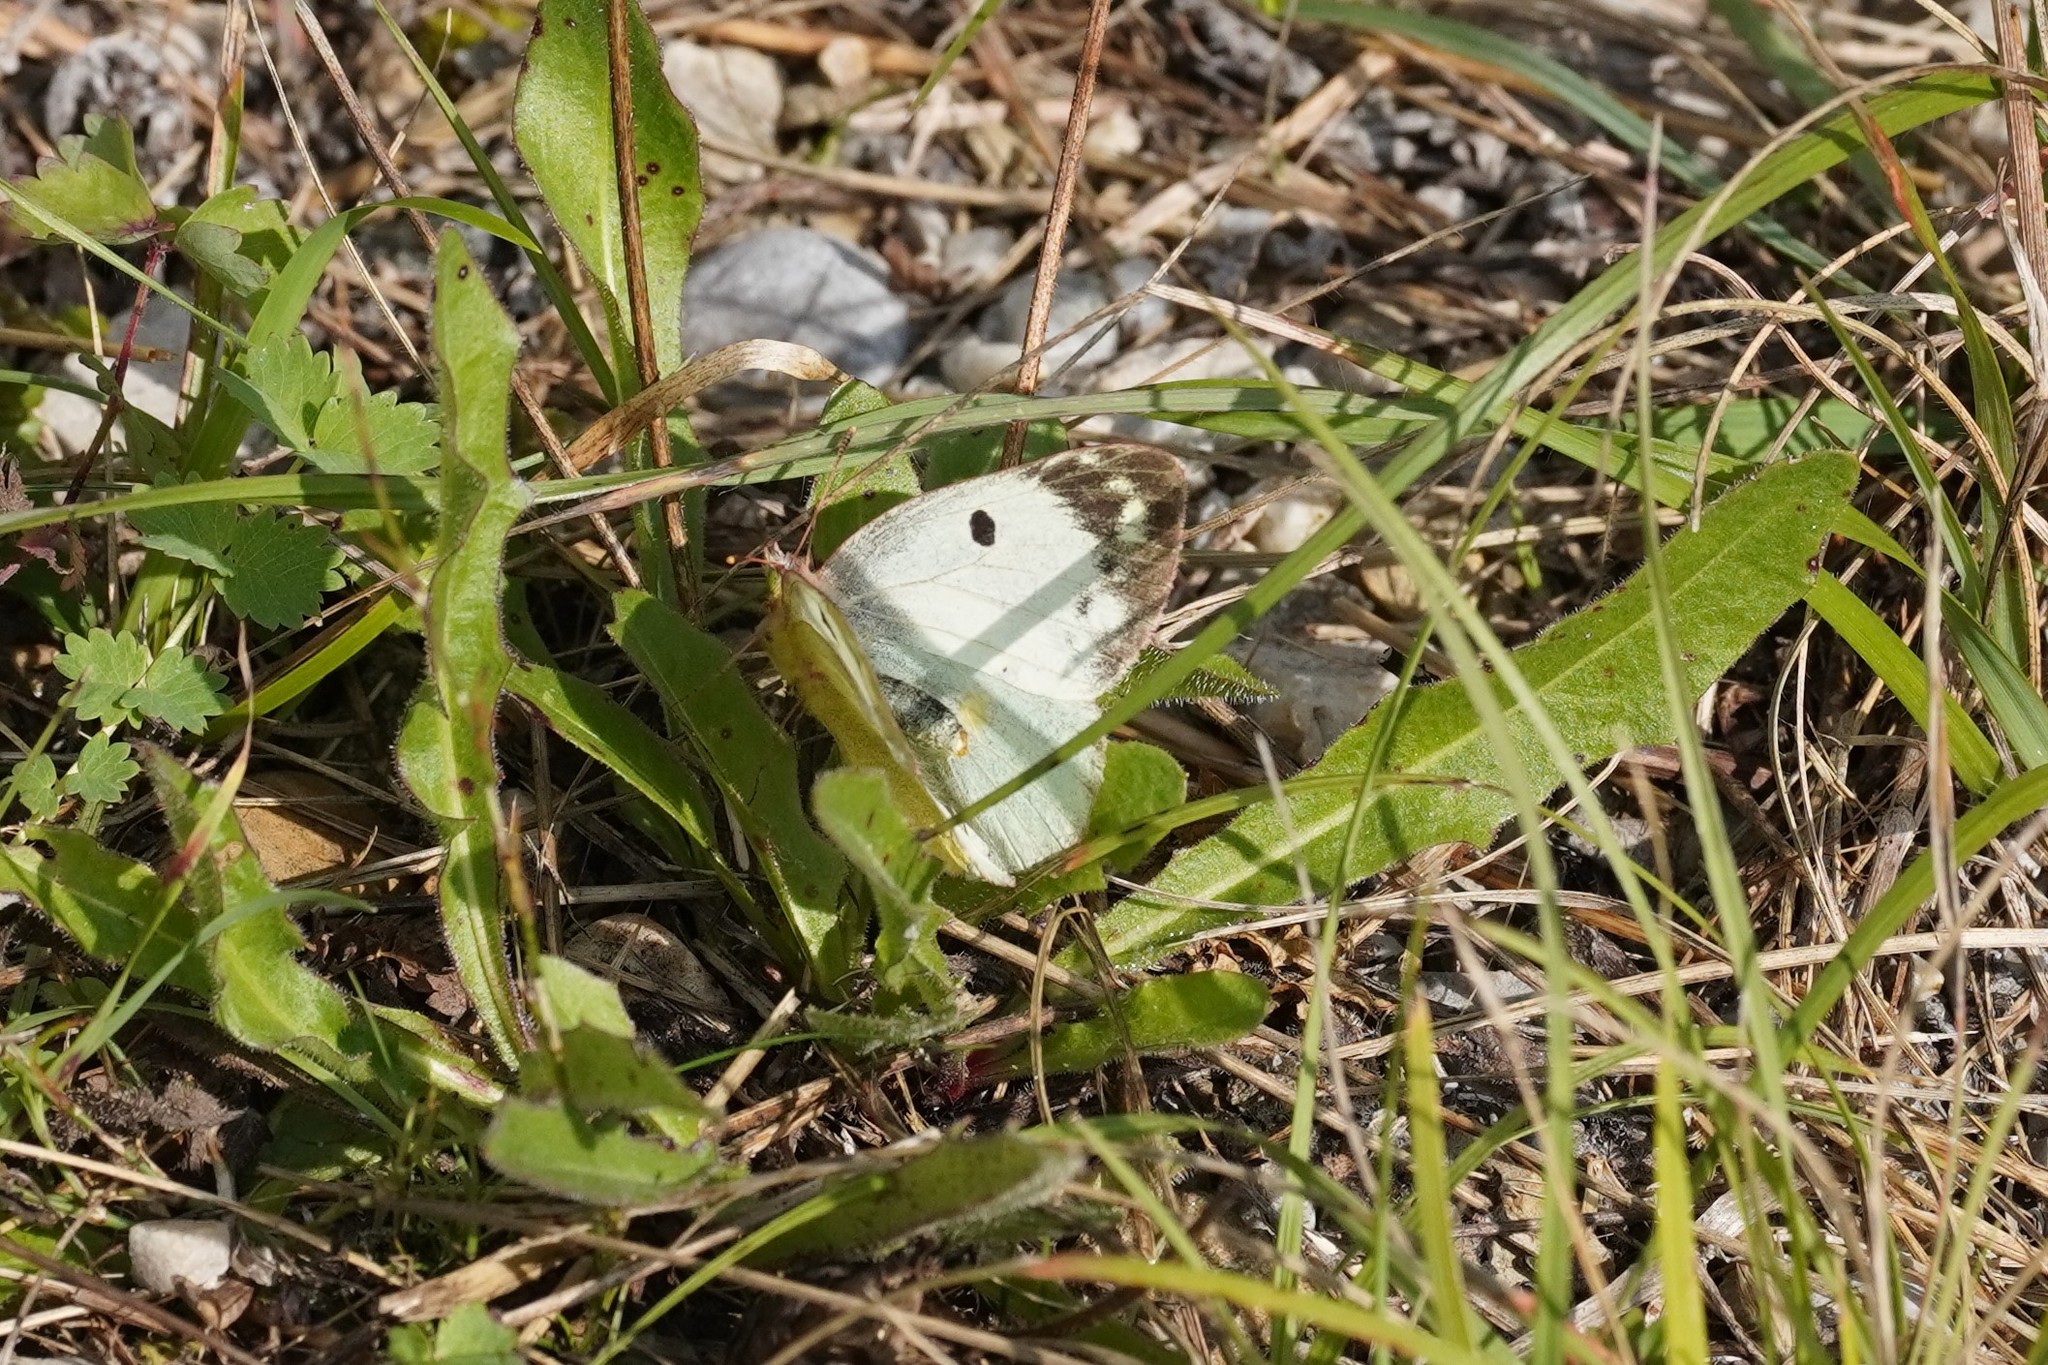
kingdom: Animalia
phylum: Arthropoda
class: Insecta
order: Lepidoptera
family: Pieridae
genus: Colias
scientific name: Colias alfacariensis
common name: Berger's clouded yellow
